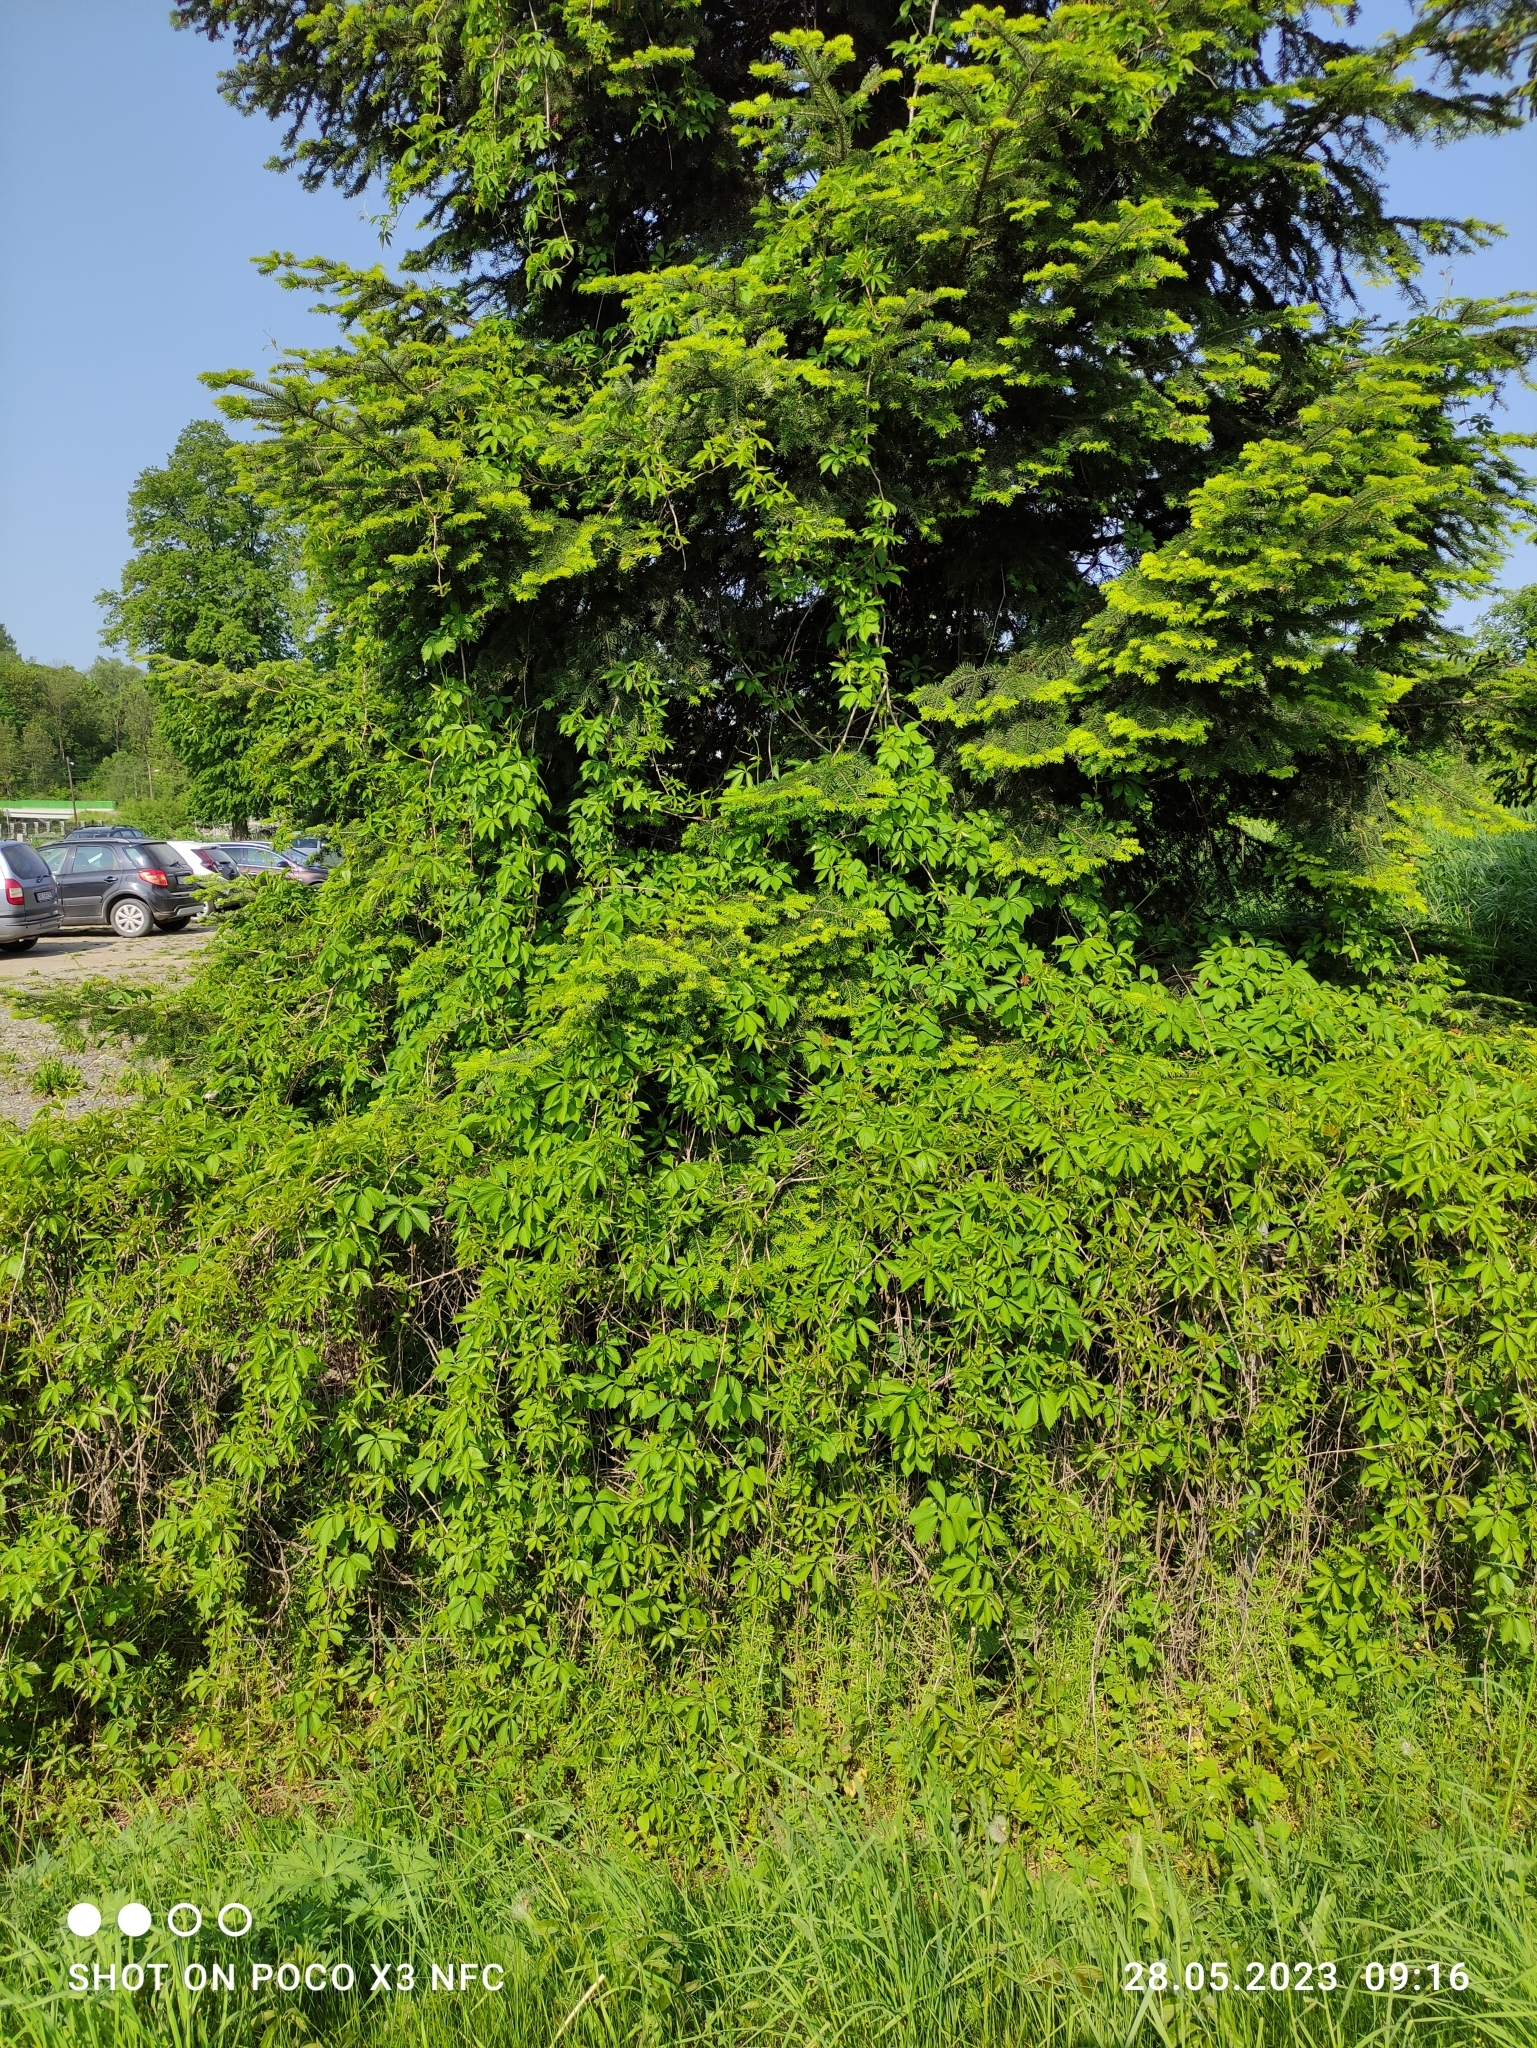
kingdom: Plantae
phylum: Tracheophyta
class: Magnoliopsida
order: Vitales
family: Vitaceae
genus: Parthenocissus
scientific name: Parthenocissus quinquefolia
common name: Virginia-creeper
